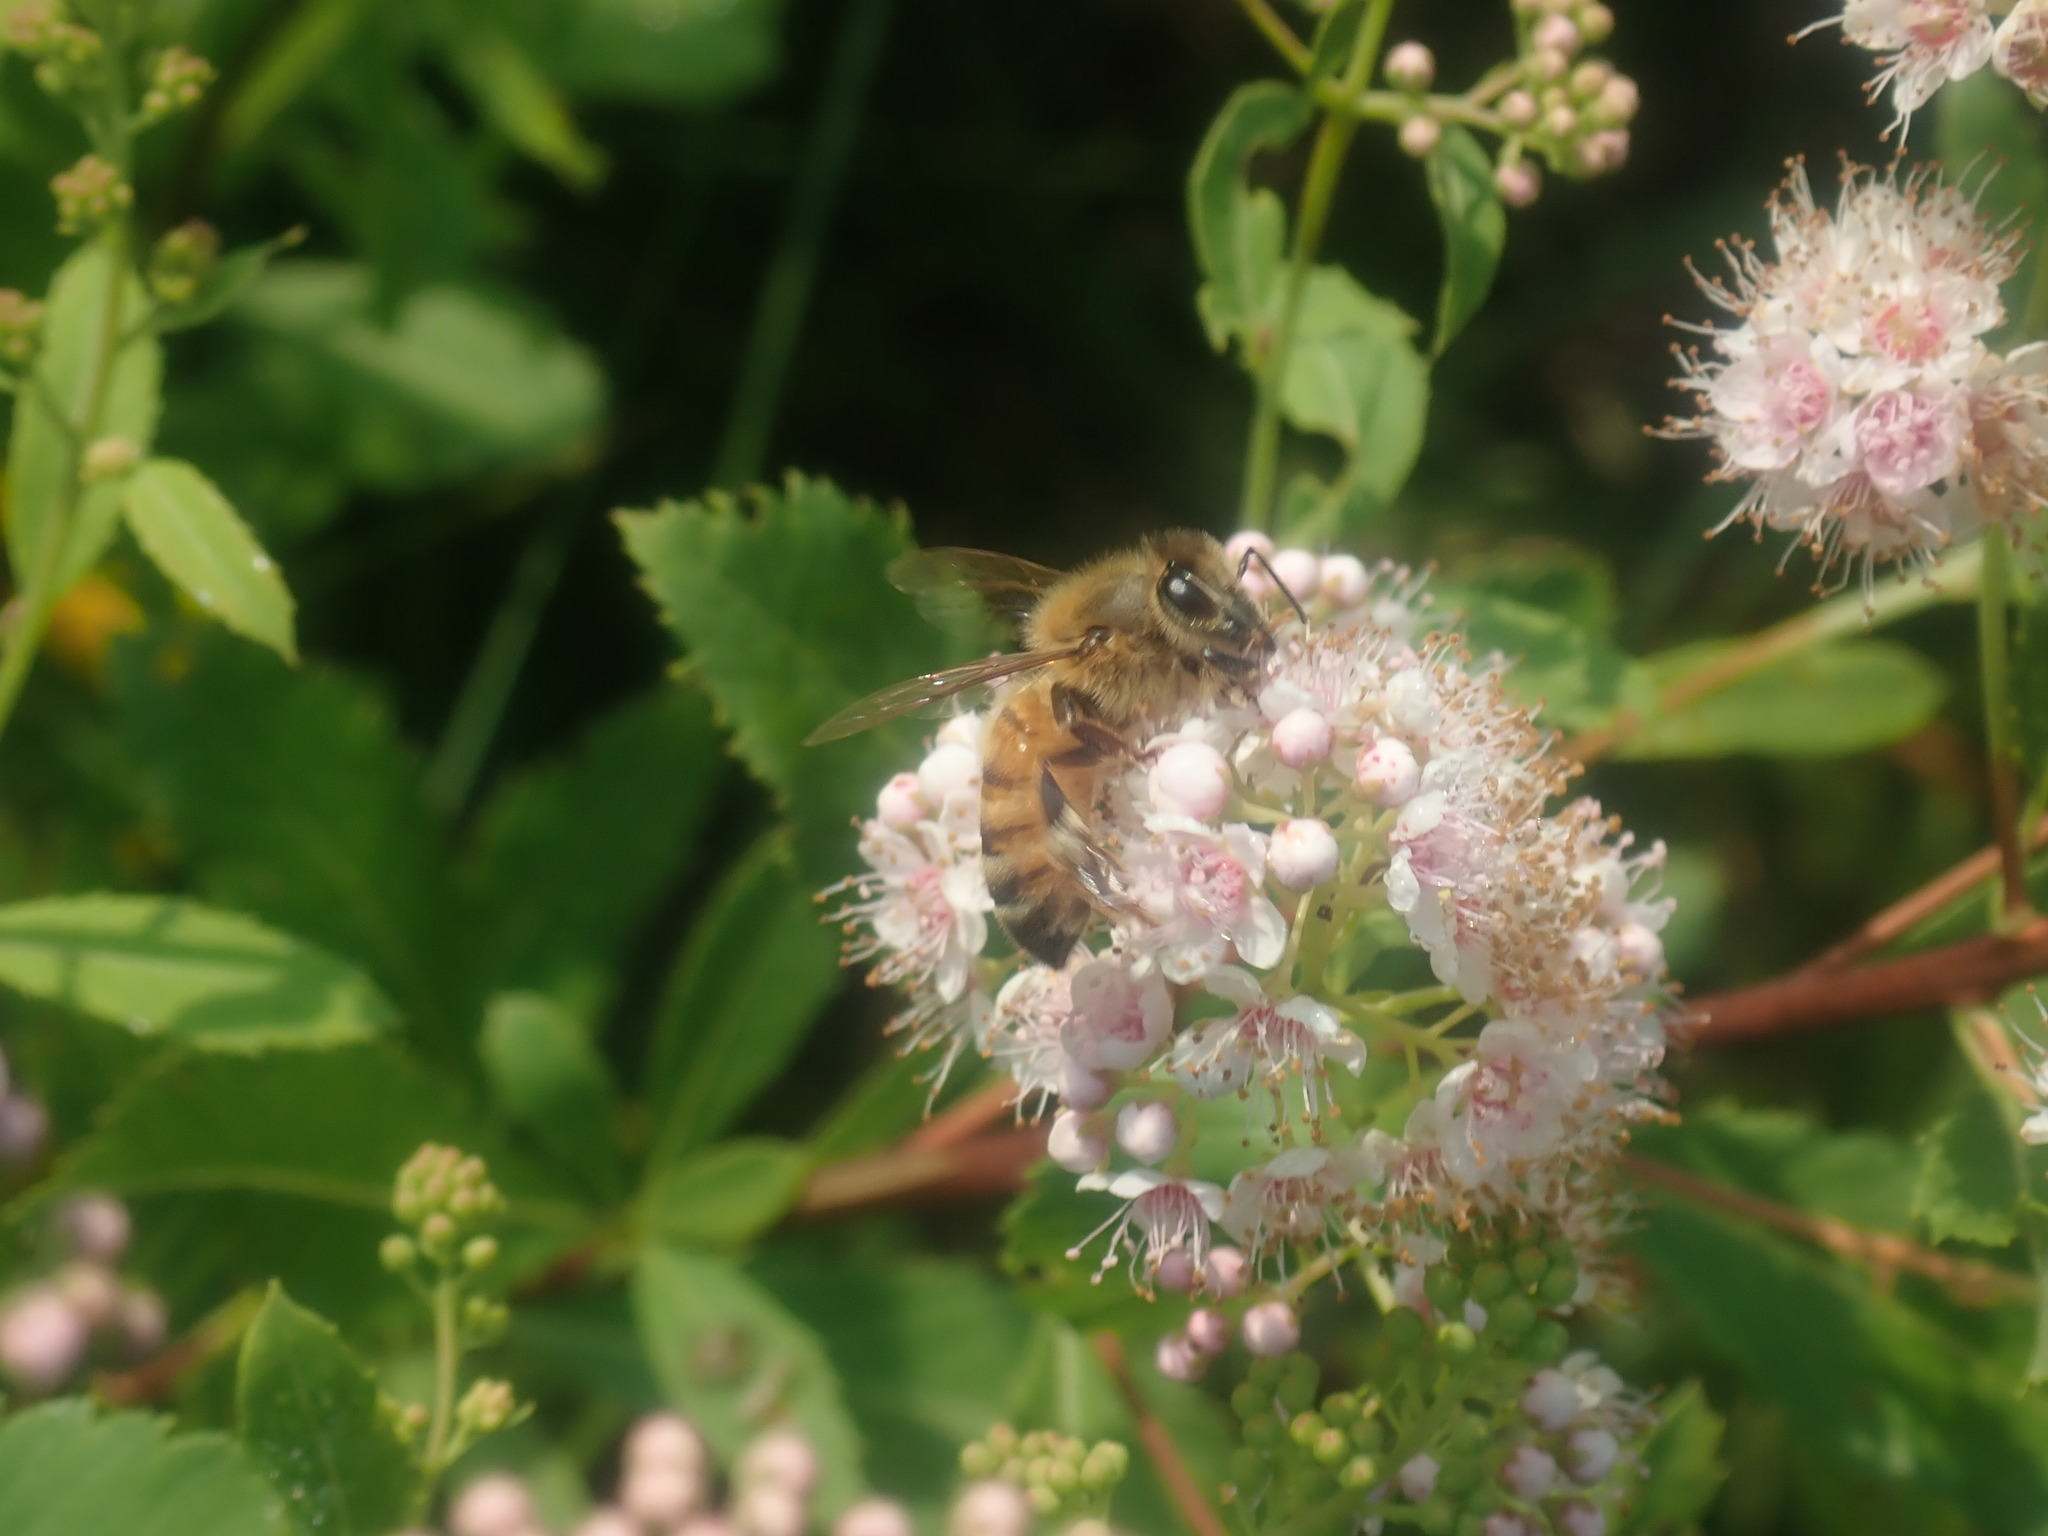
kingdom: Animalia
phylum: Arthropoda
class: Insecta
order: Hymenoptera
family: Apidae
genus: Apis
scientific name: Apis mellifera
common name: Honey bee
